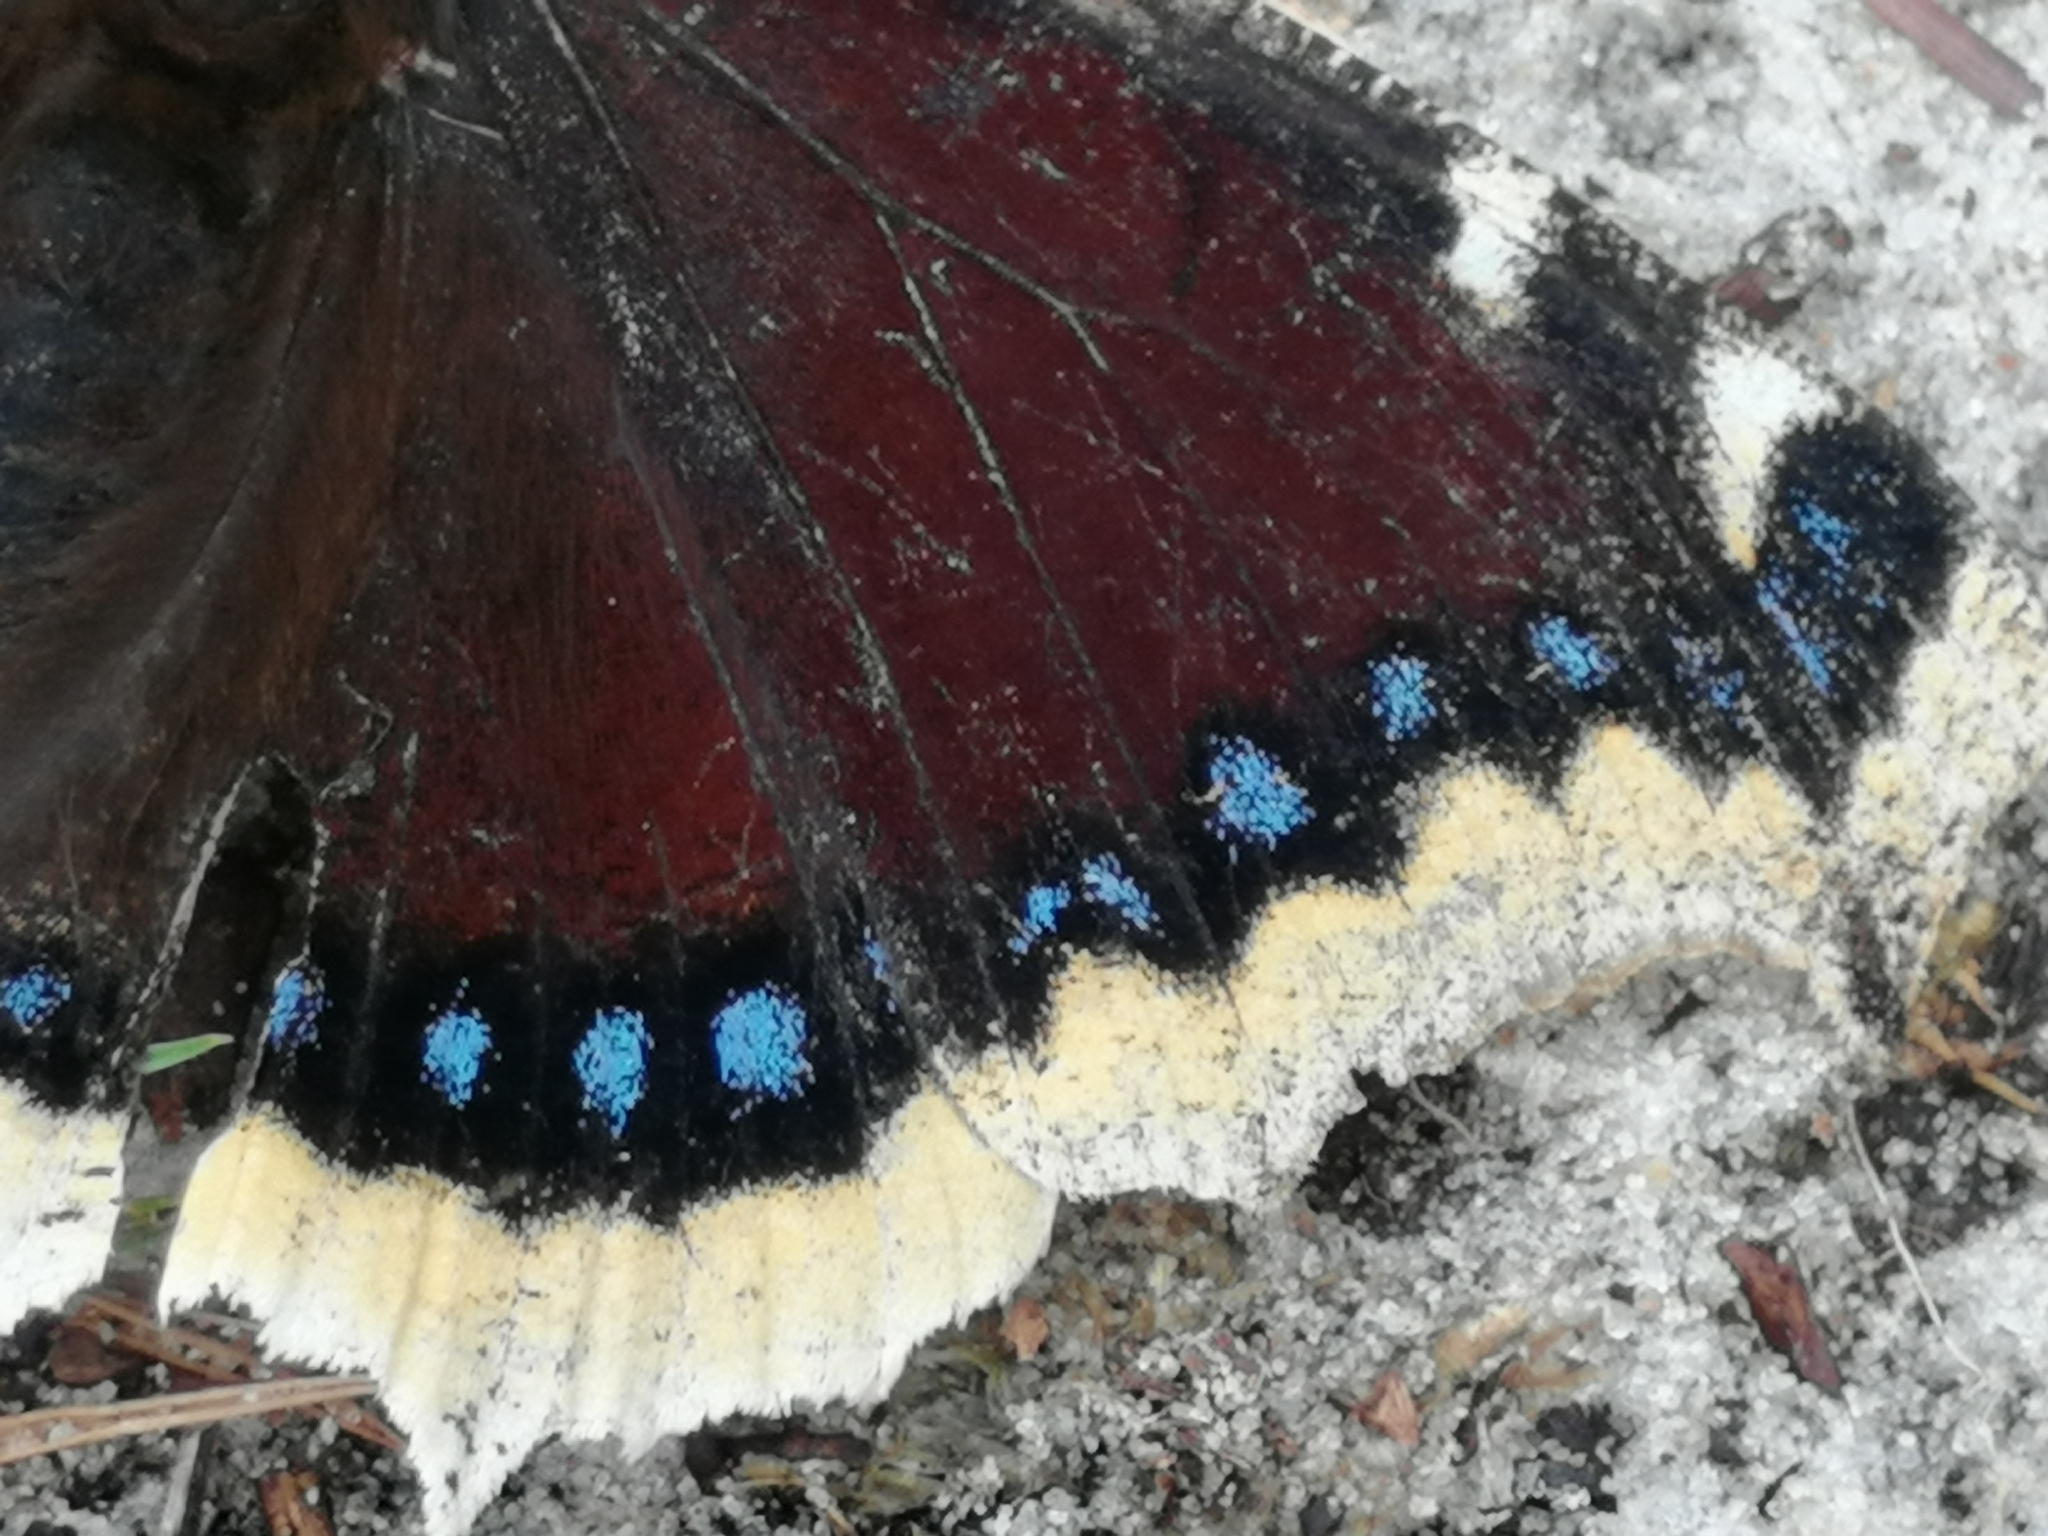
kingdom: Animalia
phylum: Arthropoda
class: Insecta
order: Lepidoptera
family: Nymphalidae
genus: Nymphalis
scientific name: Nymphalis antiopa
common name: Camberwell beauty
